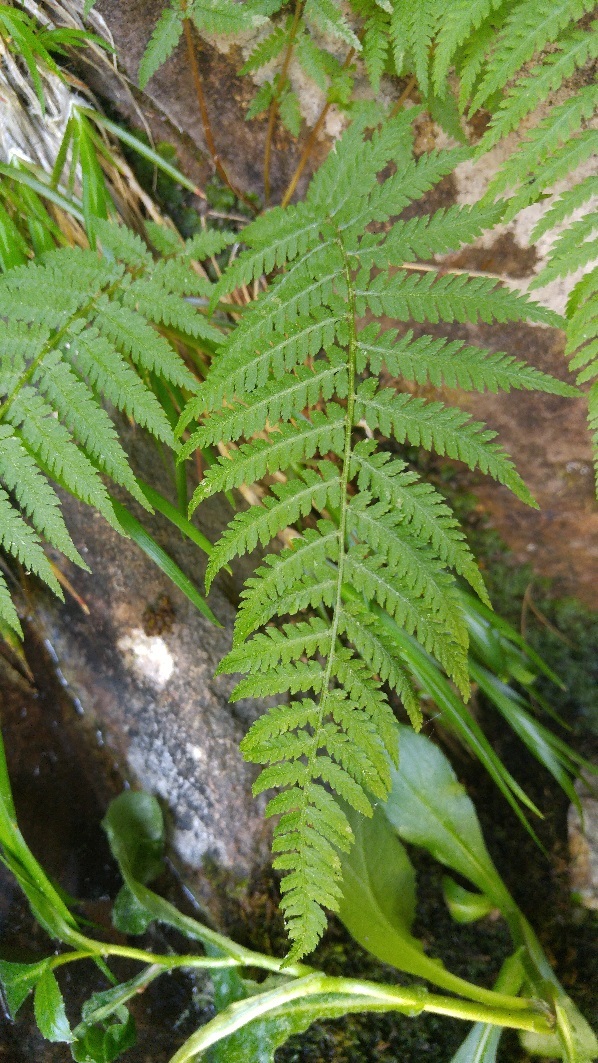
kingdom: Plantae
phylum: Tracheophyta
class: Polypodiopsida
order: Polypodiales
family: Athyriaceae
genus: Athyrium
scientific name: Athyrium filix-femina
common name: Lady fern
